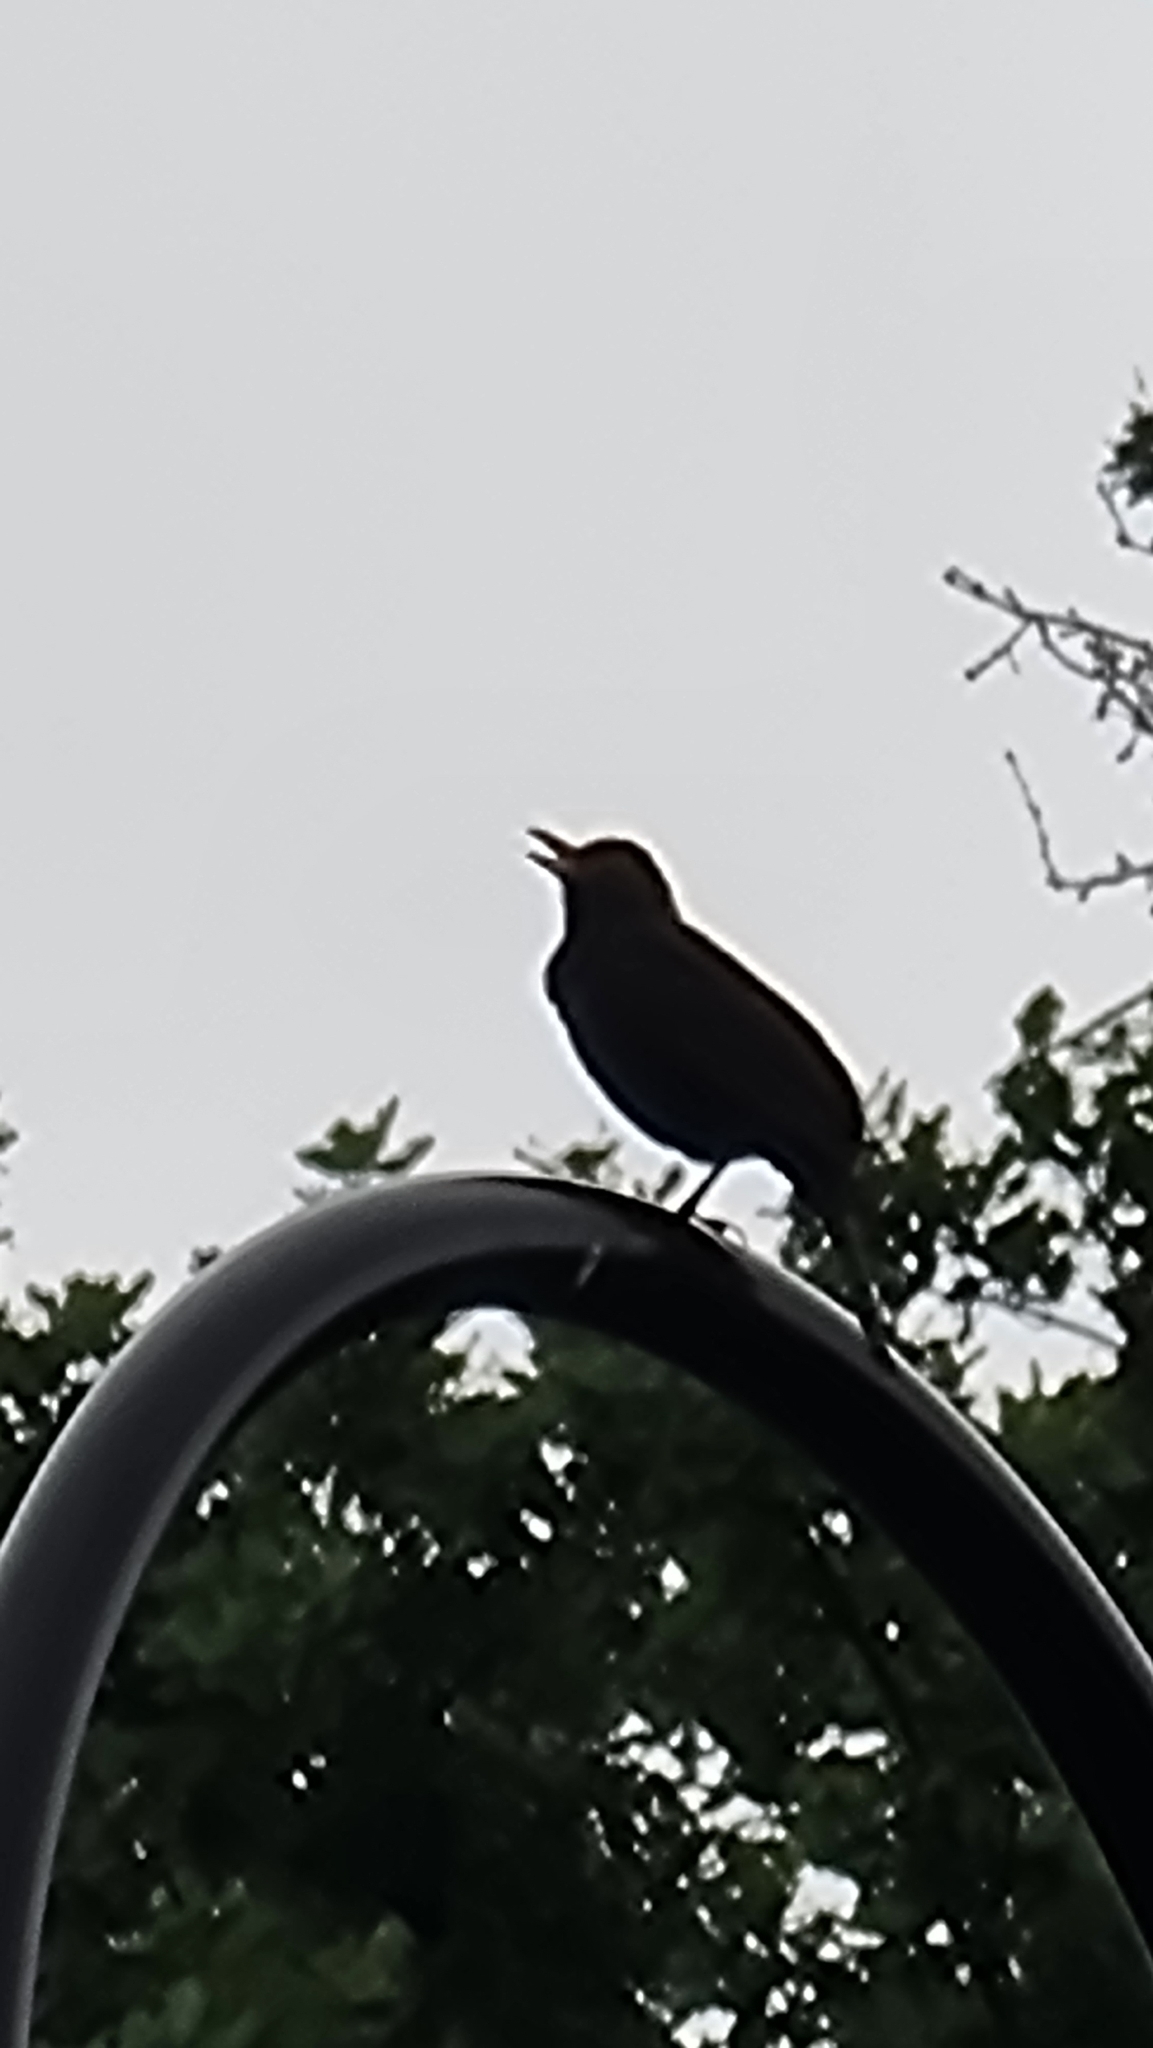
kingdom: Animalia
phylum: Chordata
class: Aves
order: Passeriformes
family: Turdidae
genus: Turdus
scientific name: Turdus merula
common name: Common blackbird
